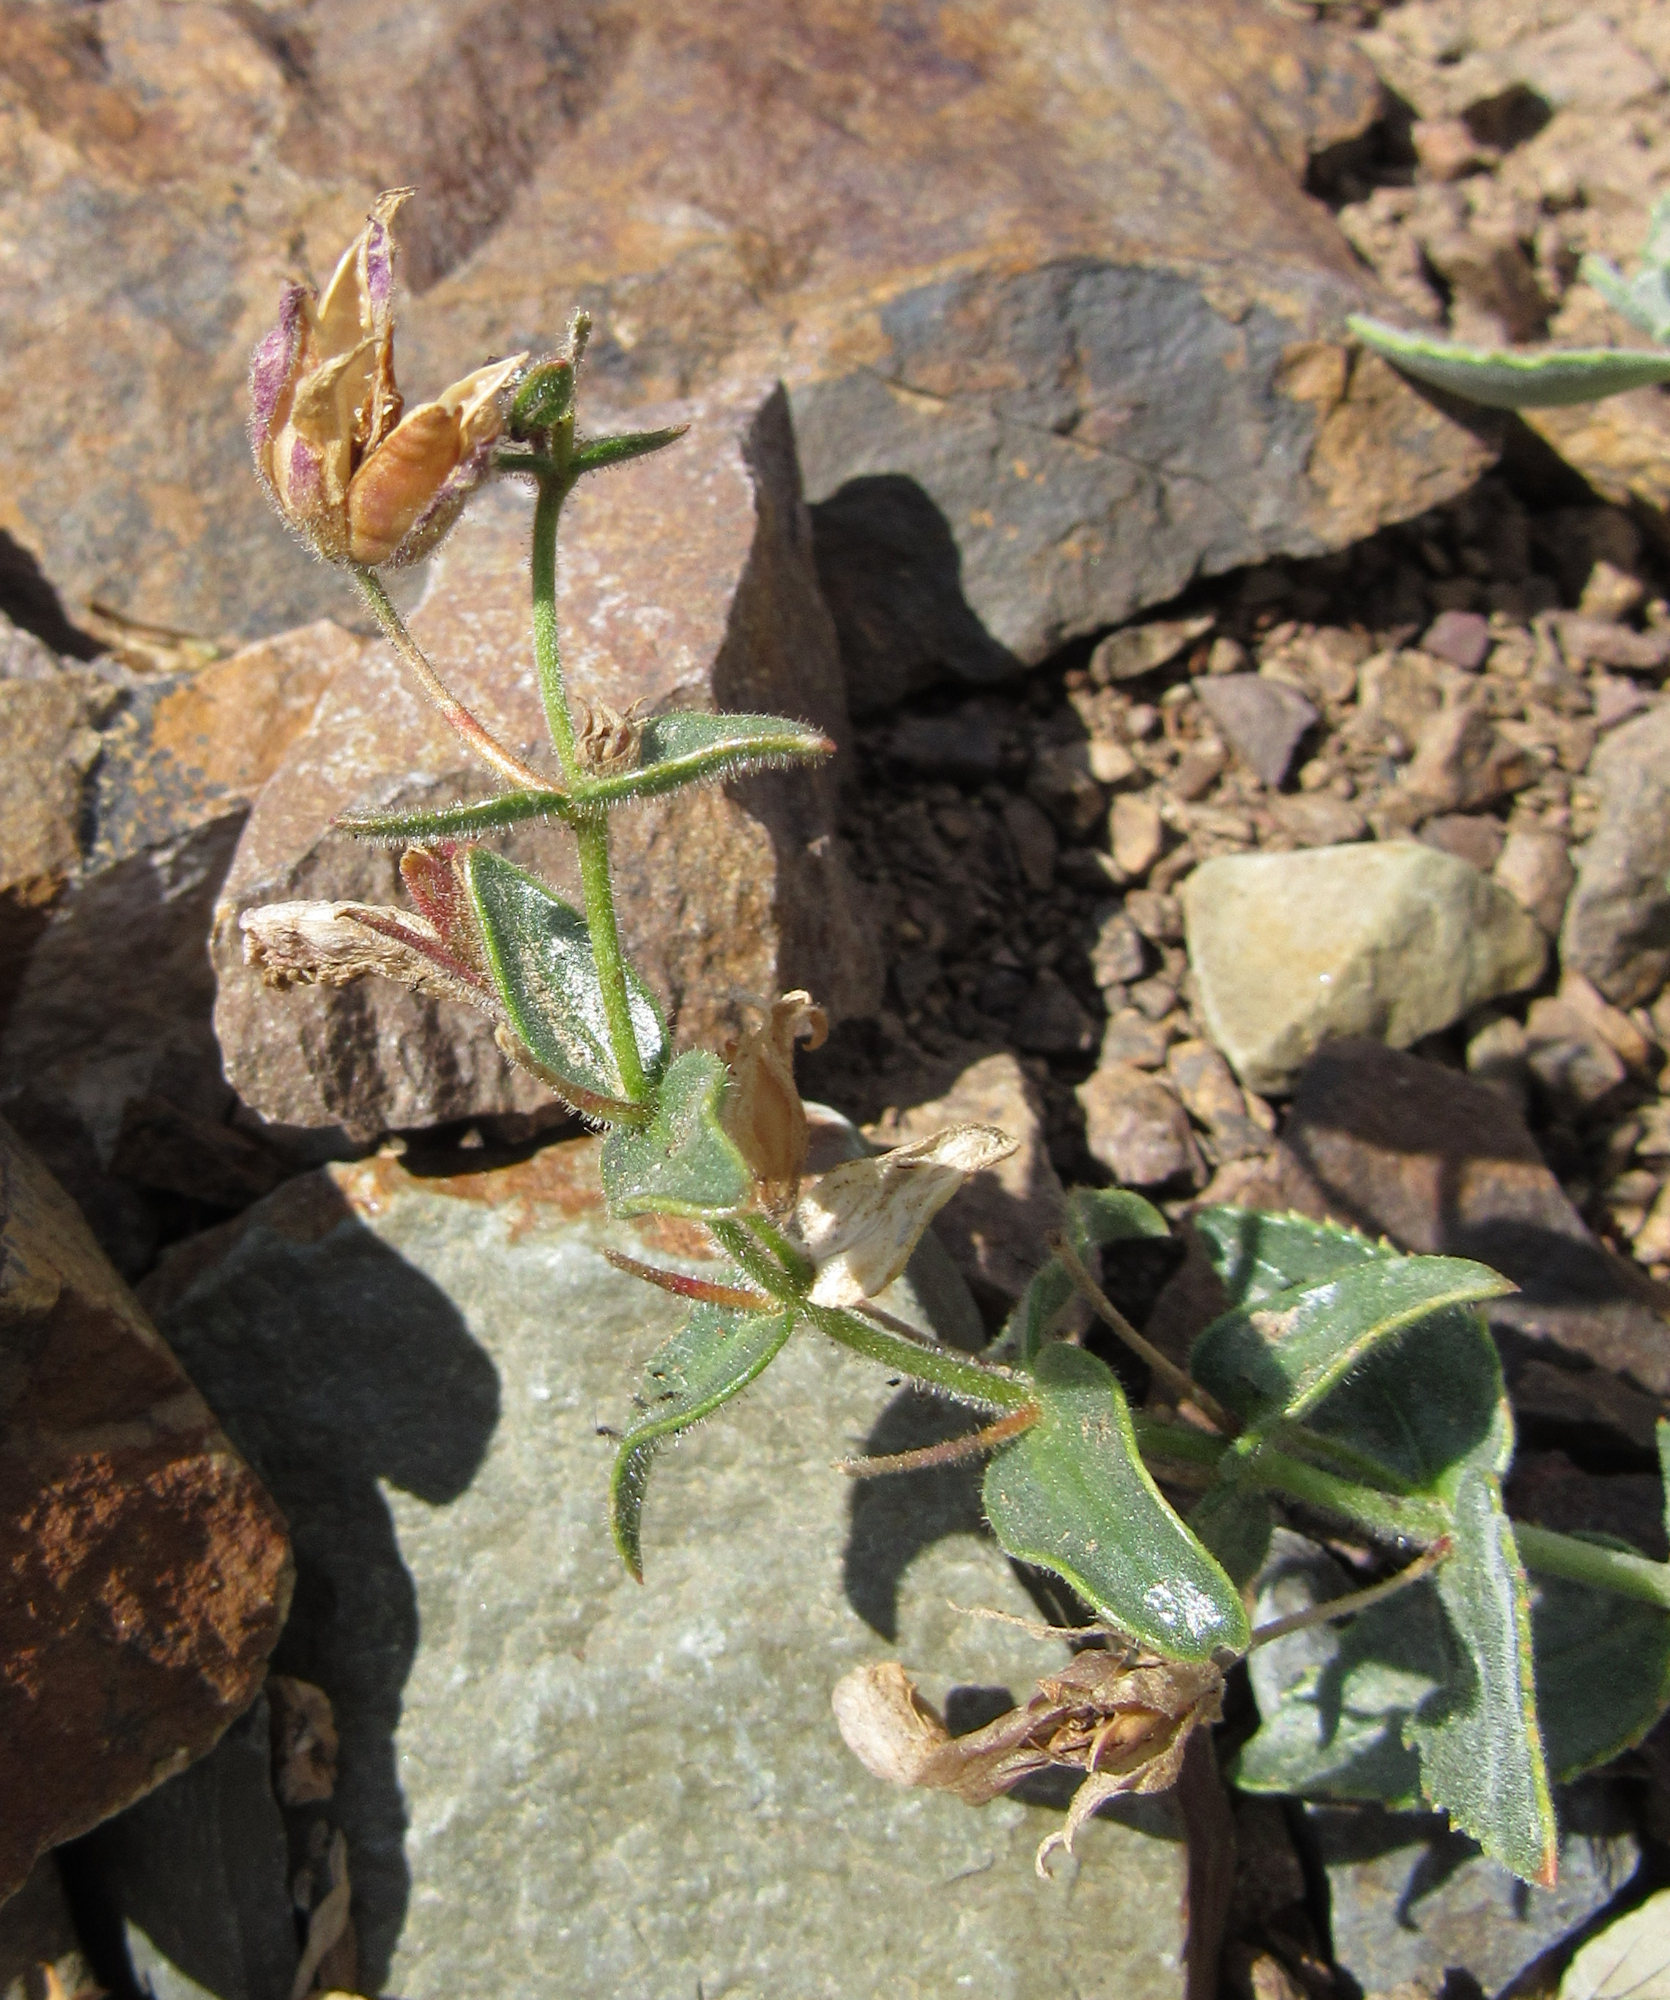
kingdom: Plantae
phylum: Tracheophyta
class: Magnoliopsida
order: Lamiales
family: Plantaginaceae
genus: Penstemon
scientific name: Penstemon montanus
